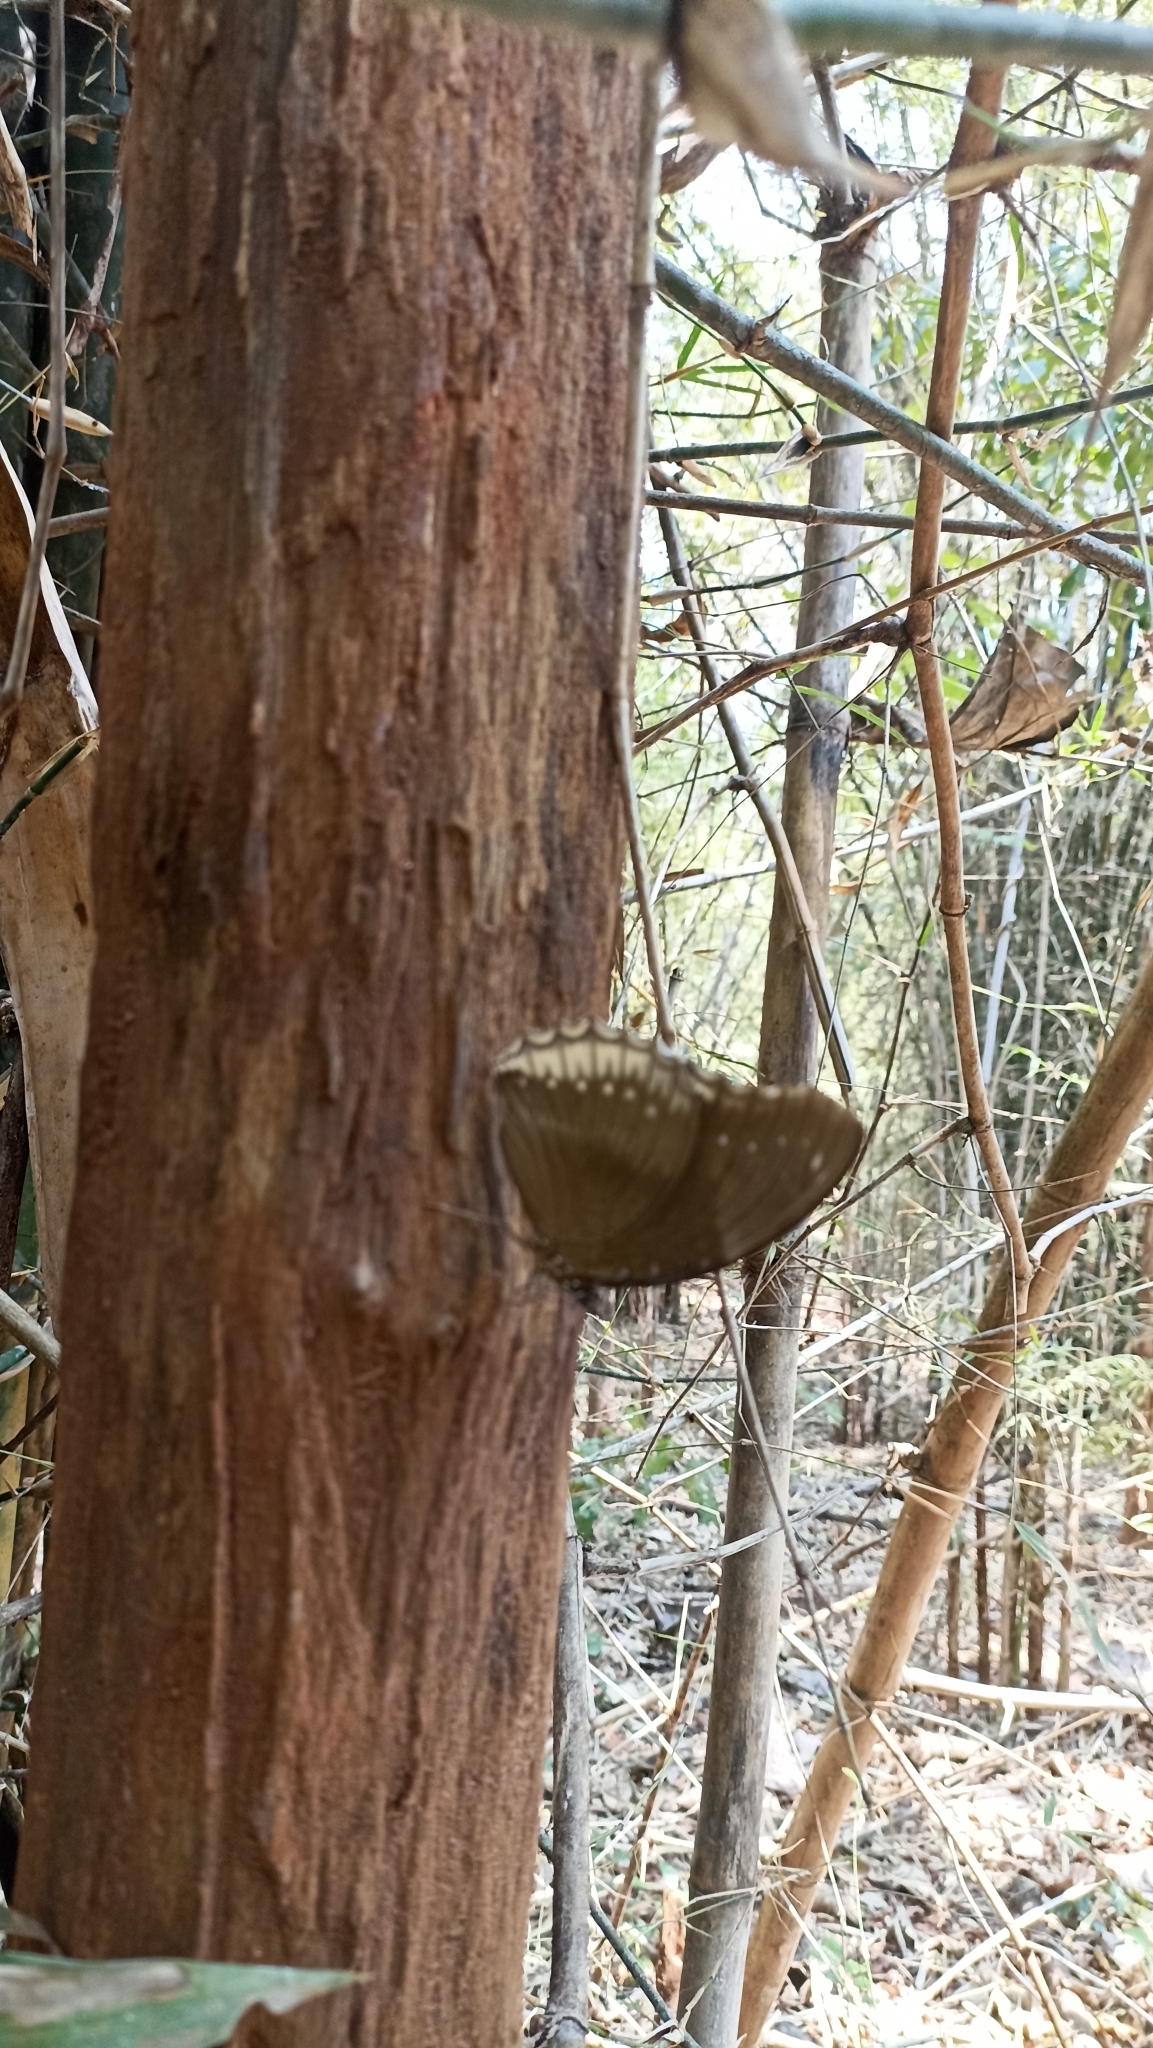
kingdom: Animalia
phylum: Arthropoda
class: Insecta
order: Lepidoptera
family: Nymphalidae
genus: Hypolimnas
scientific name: Hypolimnas bolina
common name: Great eggfly
